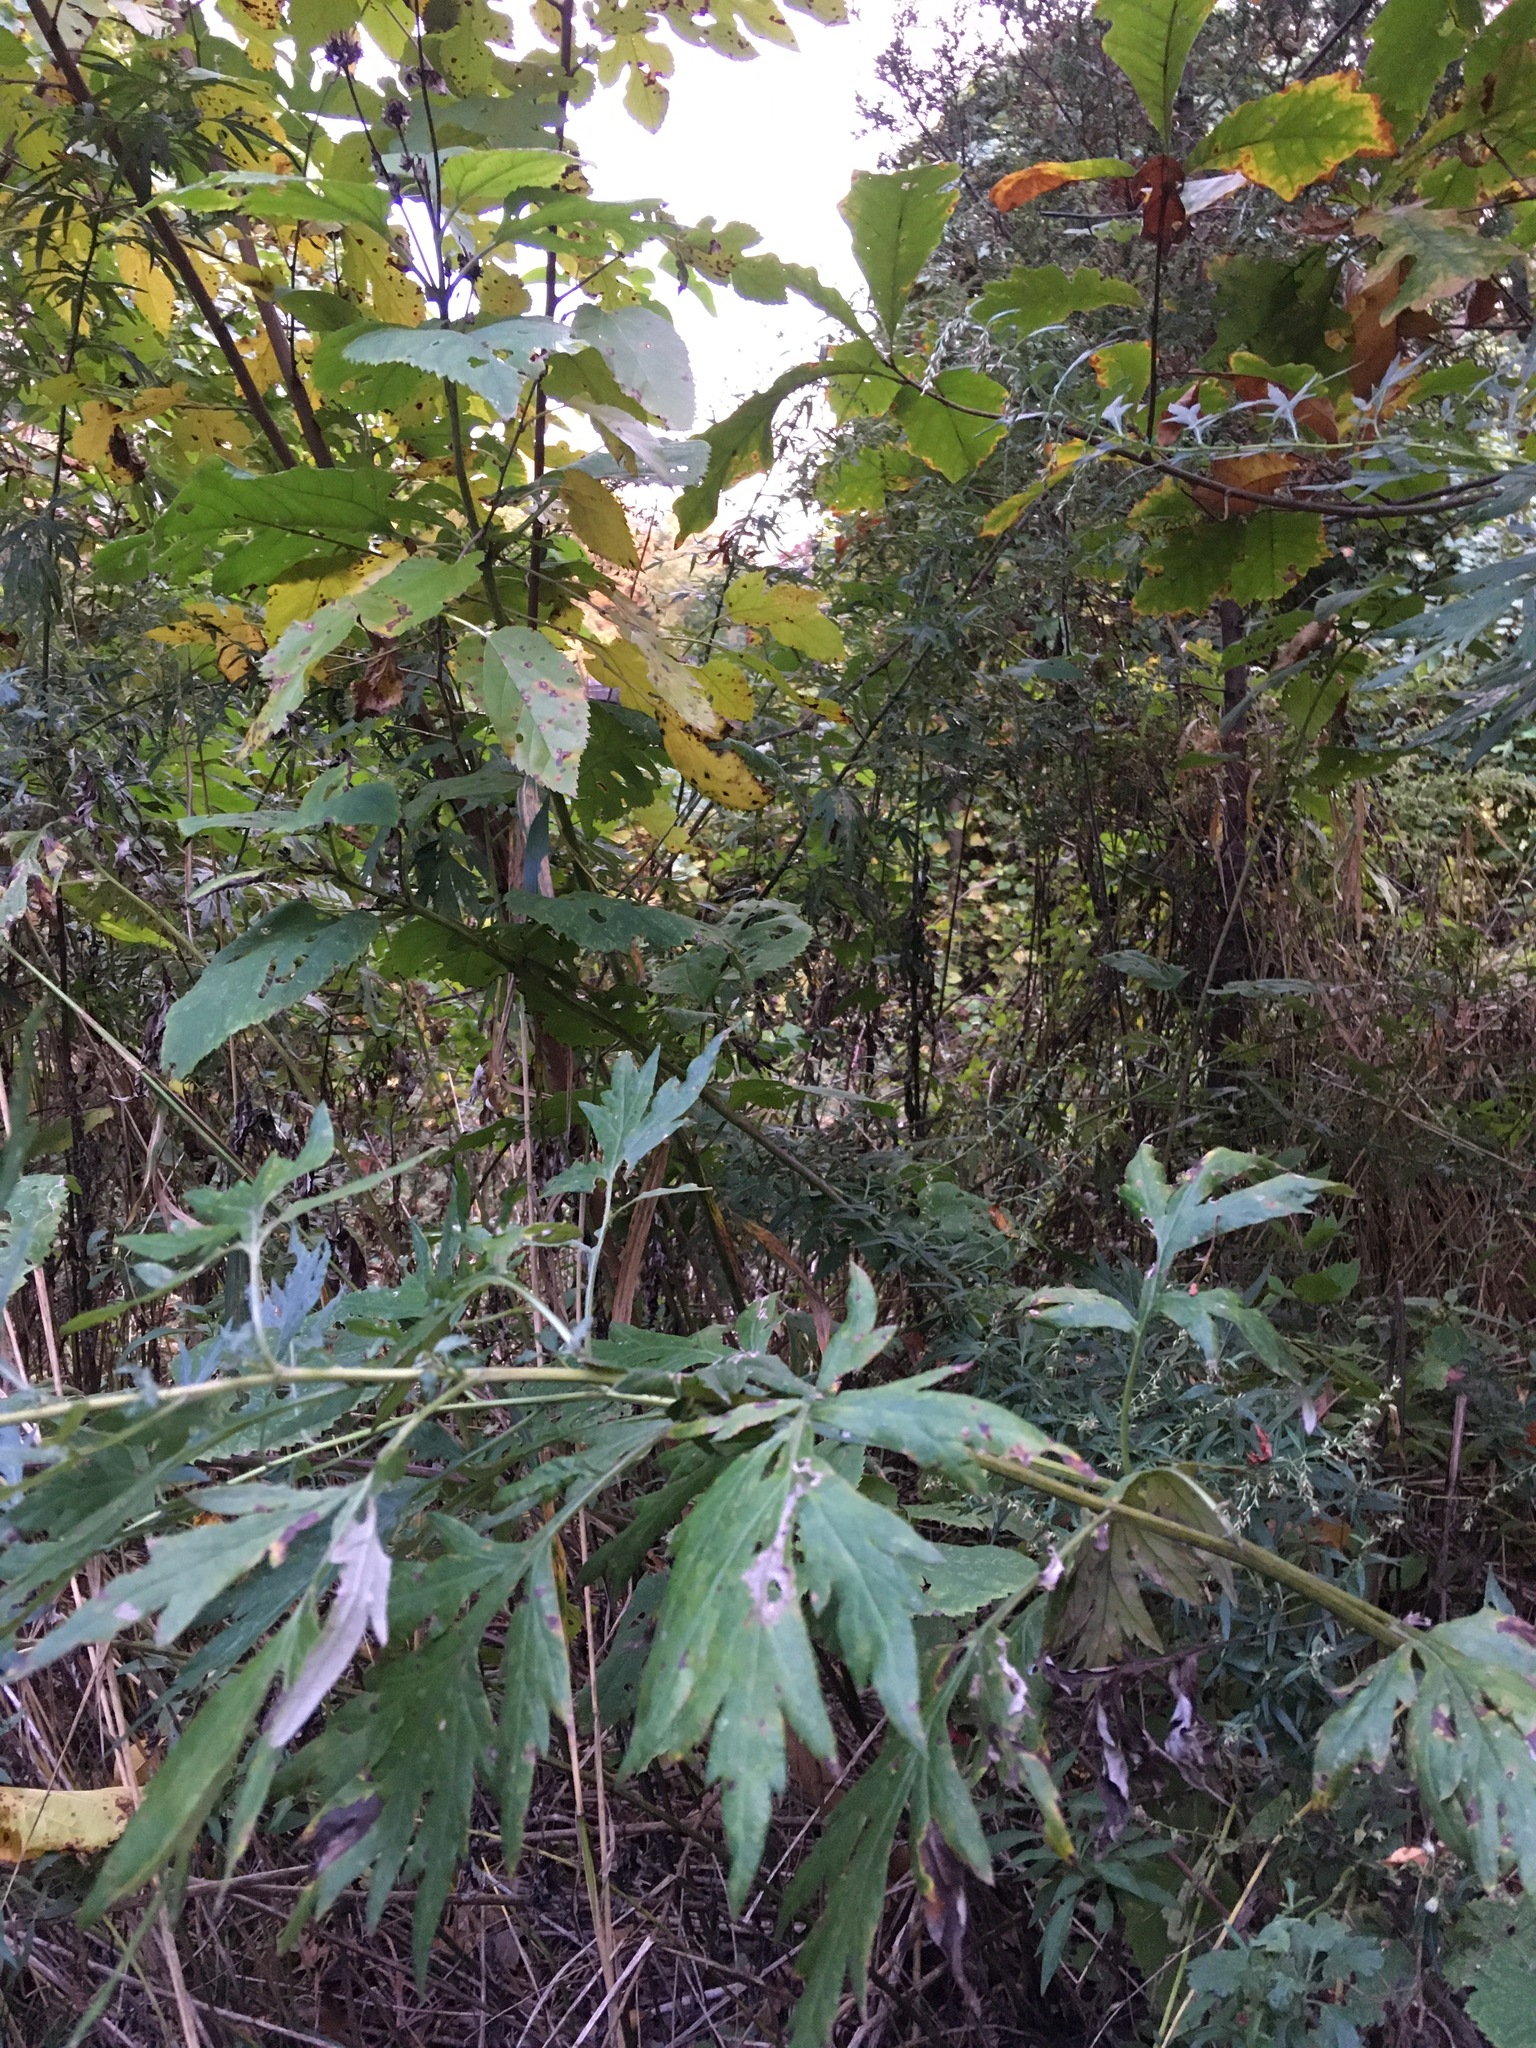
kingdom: Plantae
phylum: Tracheophyta
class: Magnoliopsida
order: Asterales
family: Asteraceae
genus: Artemisia
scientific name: Artemisia vulgaris
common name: Mugwort
